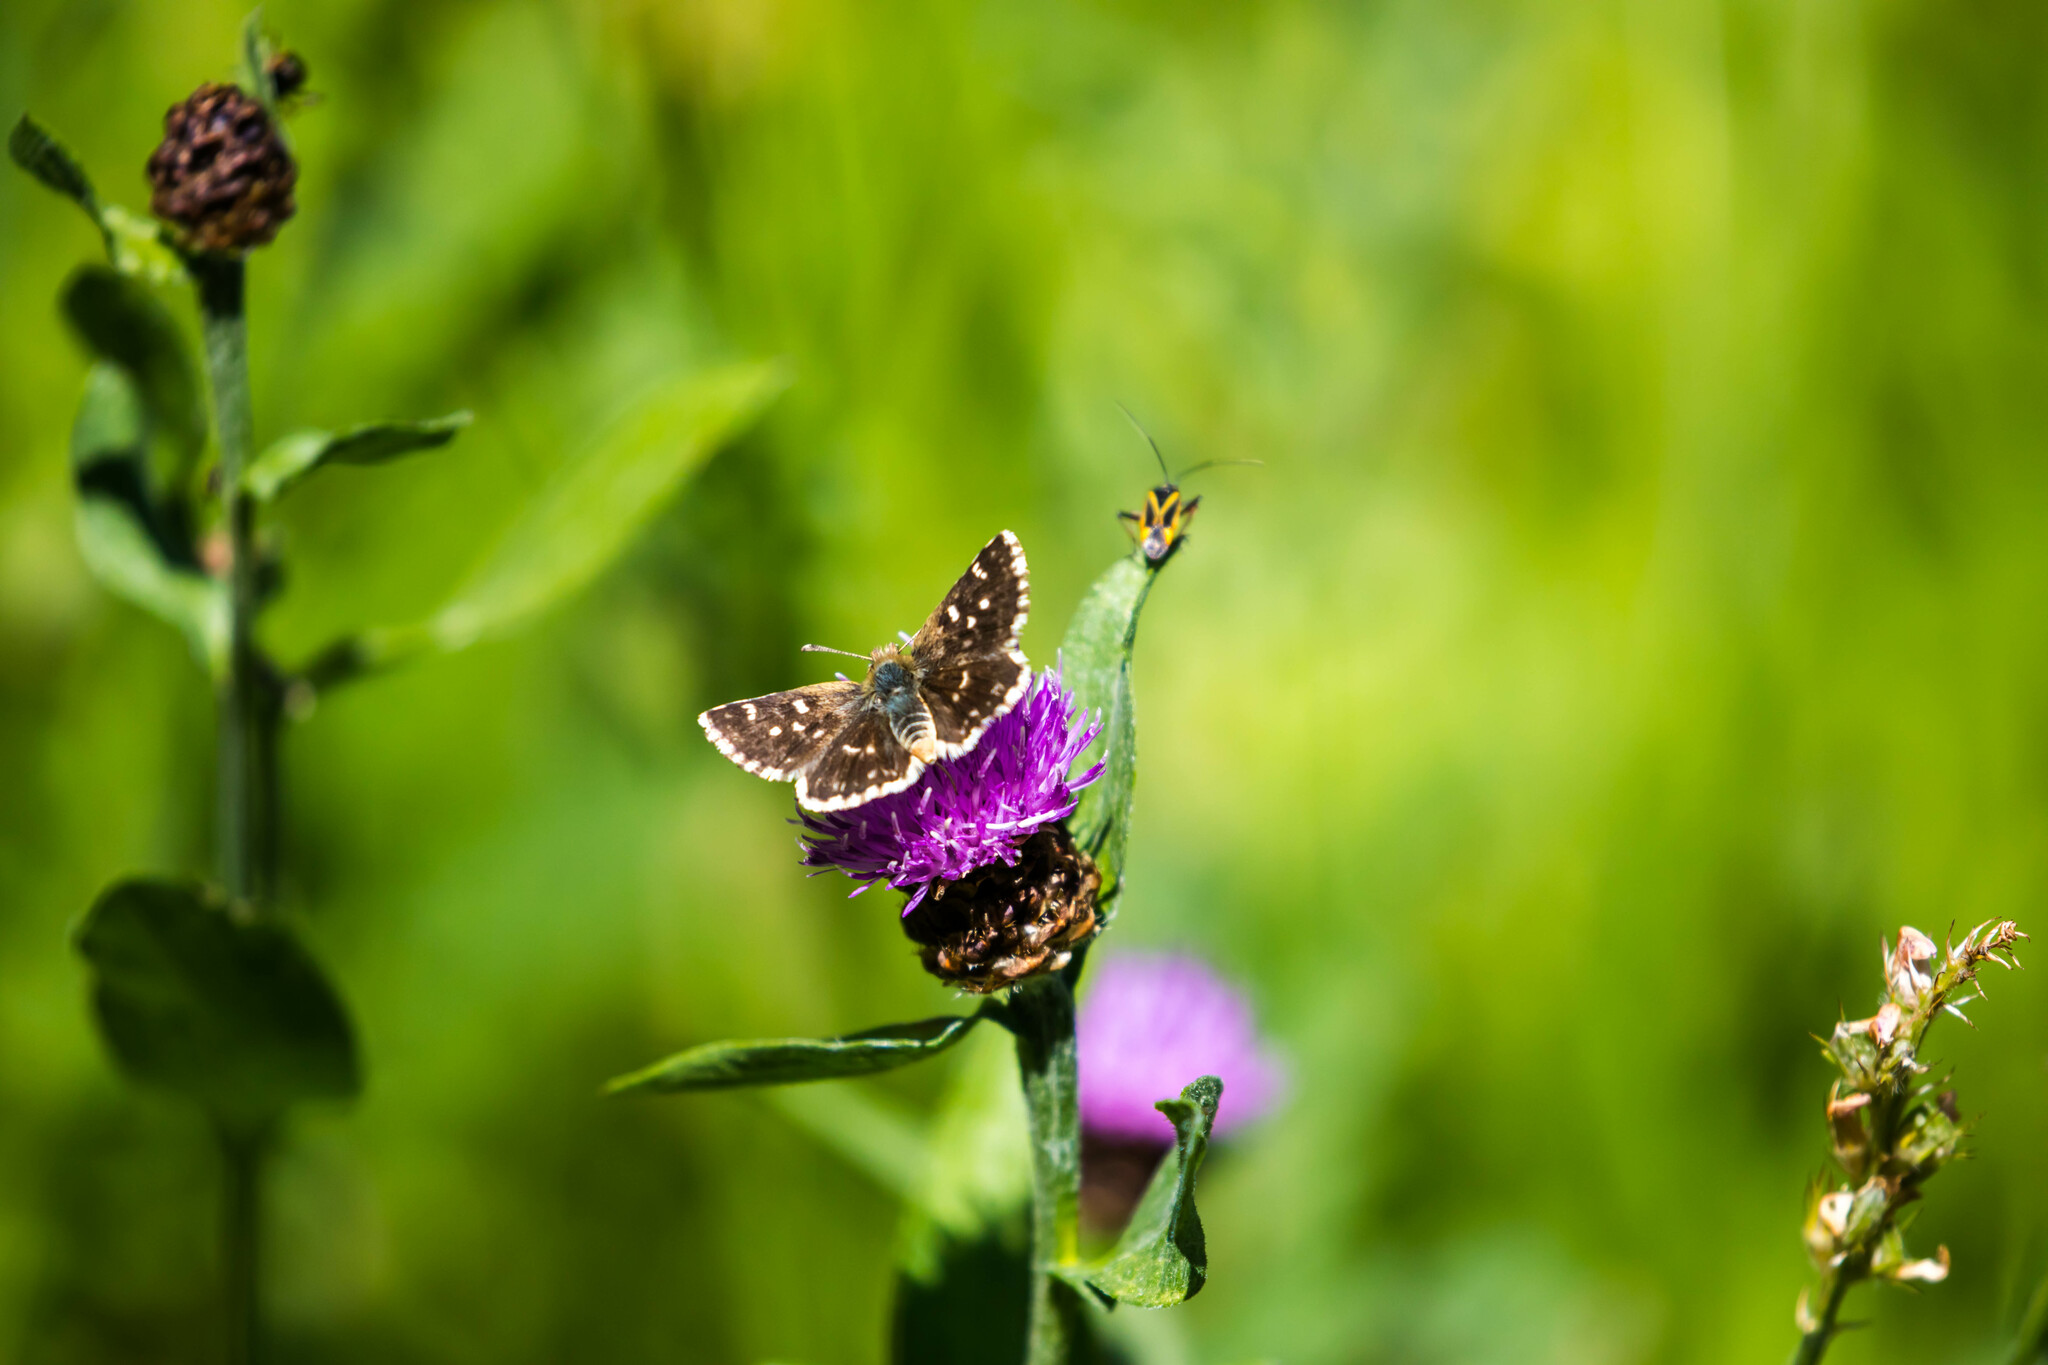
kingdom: Animalia
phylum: Arthropoda
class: Insecta
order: Lepidoptera
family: Hesperiidae
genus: Spialia
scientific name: Spialia sertorius
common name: Red underwing skipper
